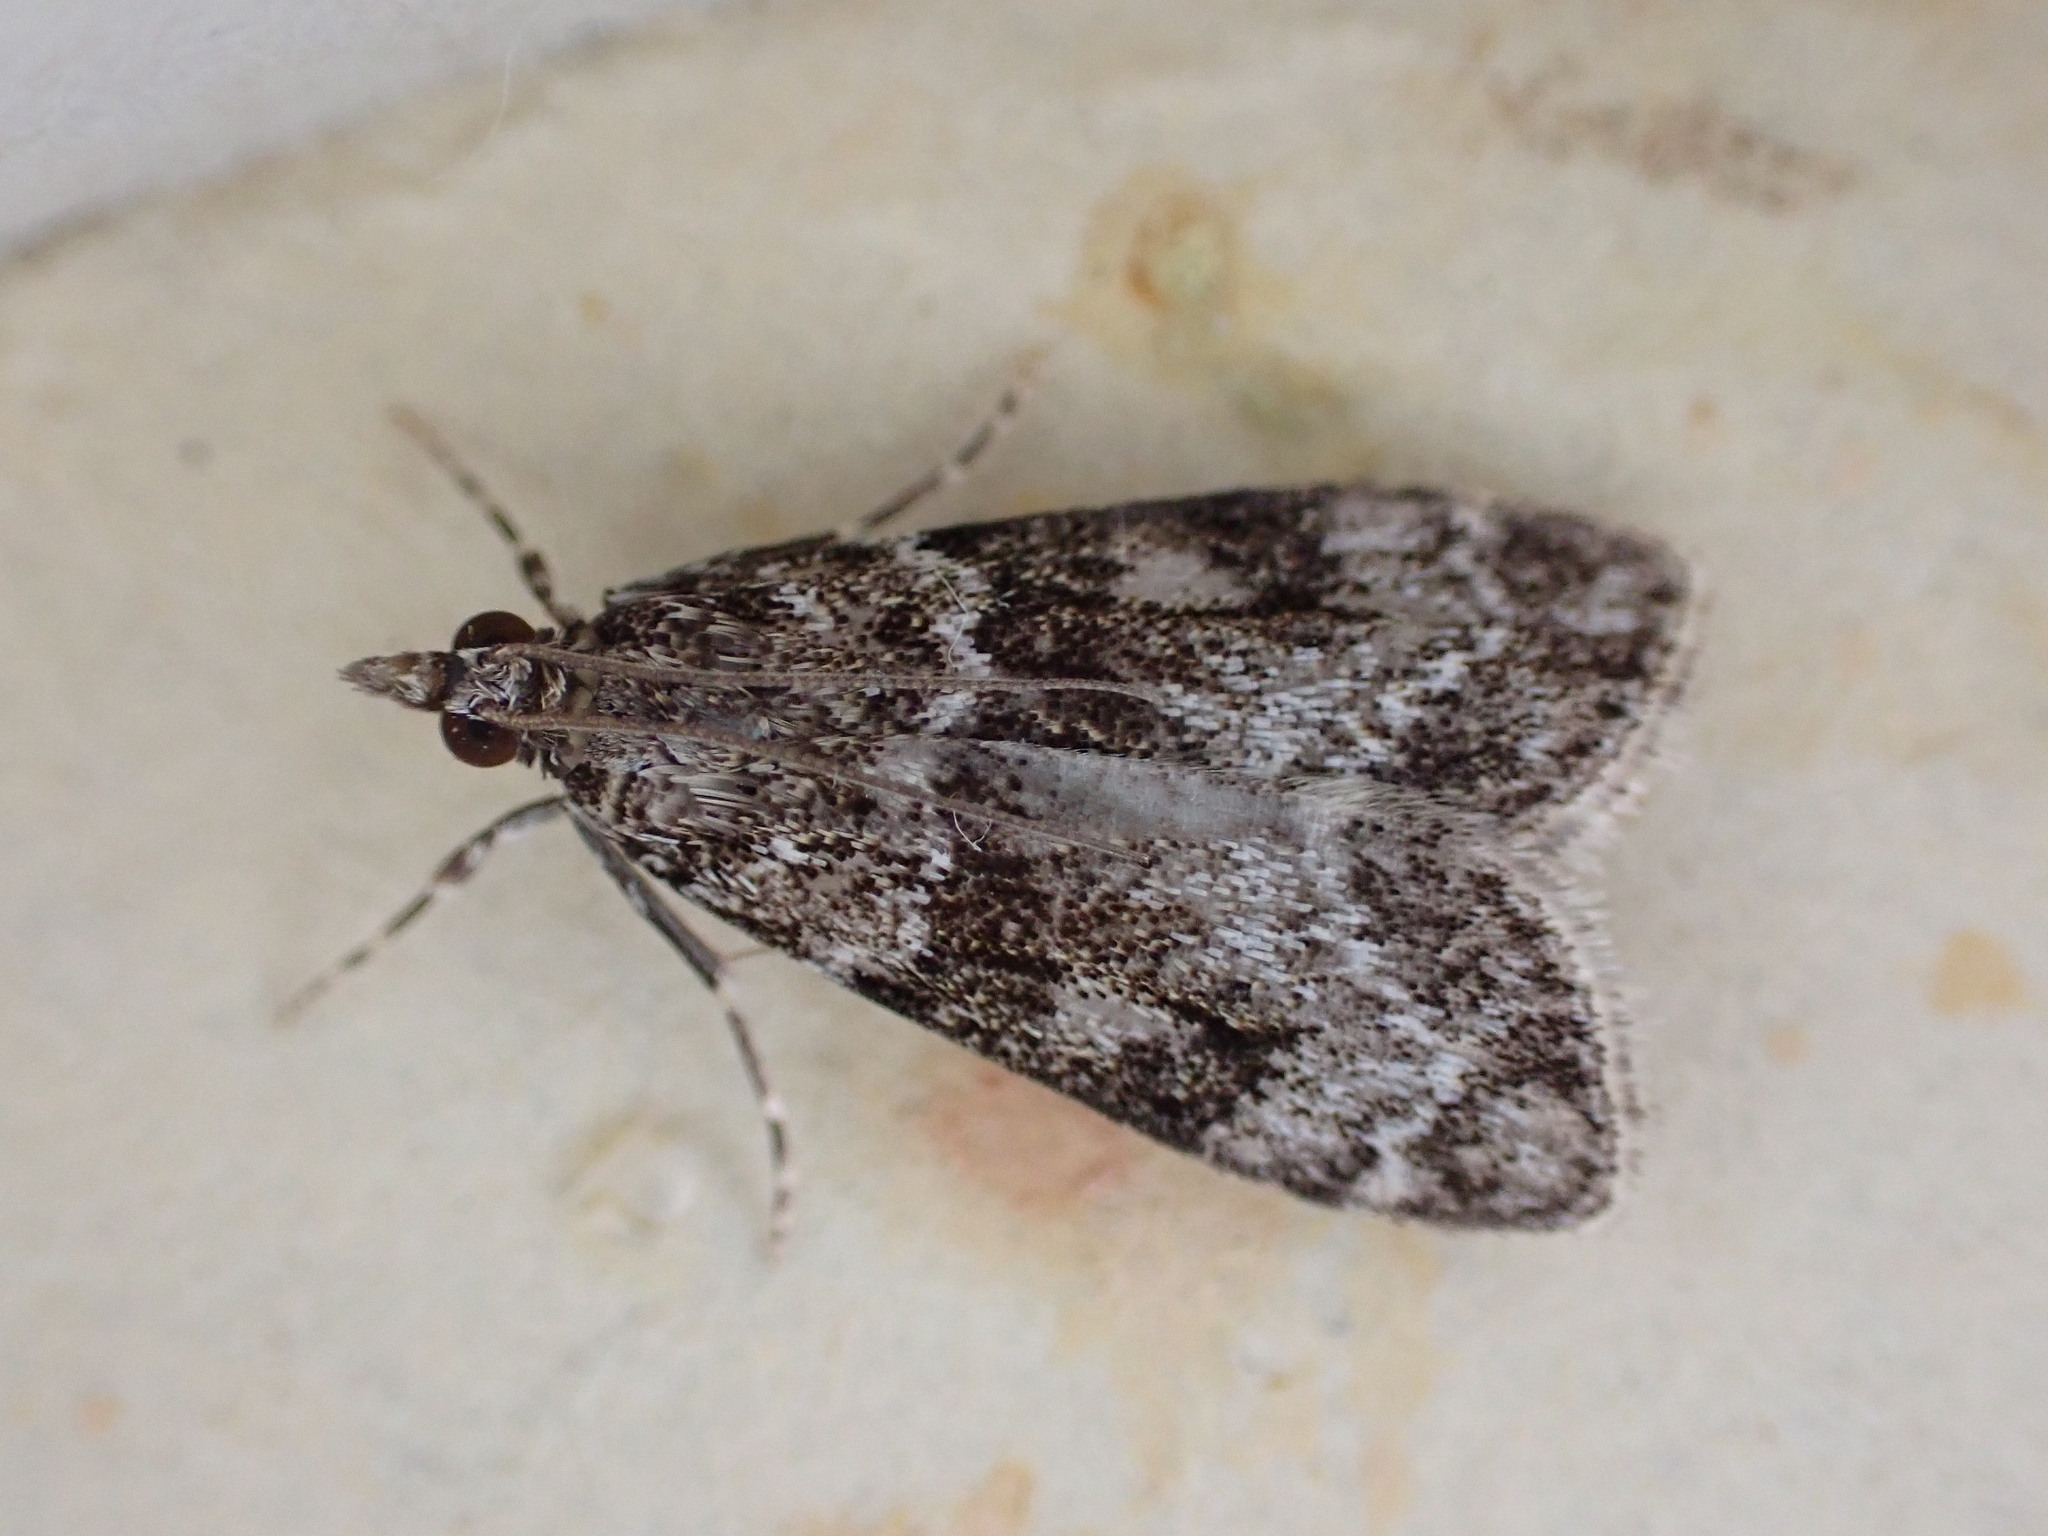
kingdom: Animalia
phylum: Arthropoda
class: Insecta
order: Lepidoptera
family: Crambidae
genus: Eudonia
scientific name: Eudonia mercurella
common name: Small grey
